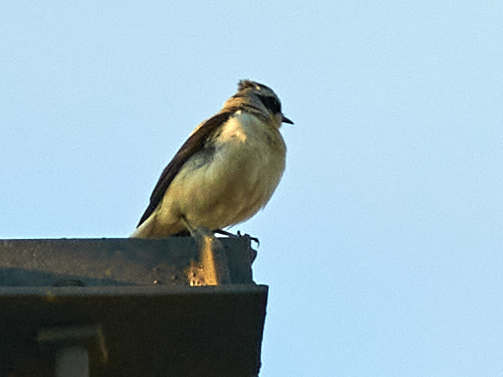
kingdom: Animalia
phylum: Chordata
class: Aves
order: Passeriformes
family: Muscicapidae
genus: Oenanthe
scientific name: Oenanthe oenanthe
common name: Northern wheatear
